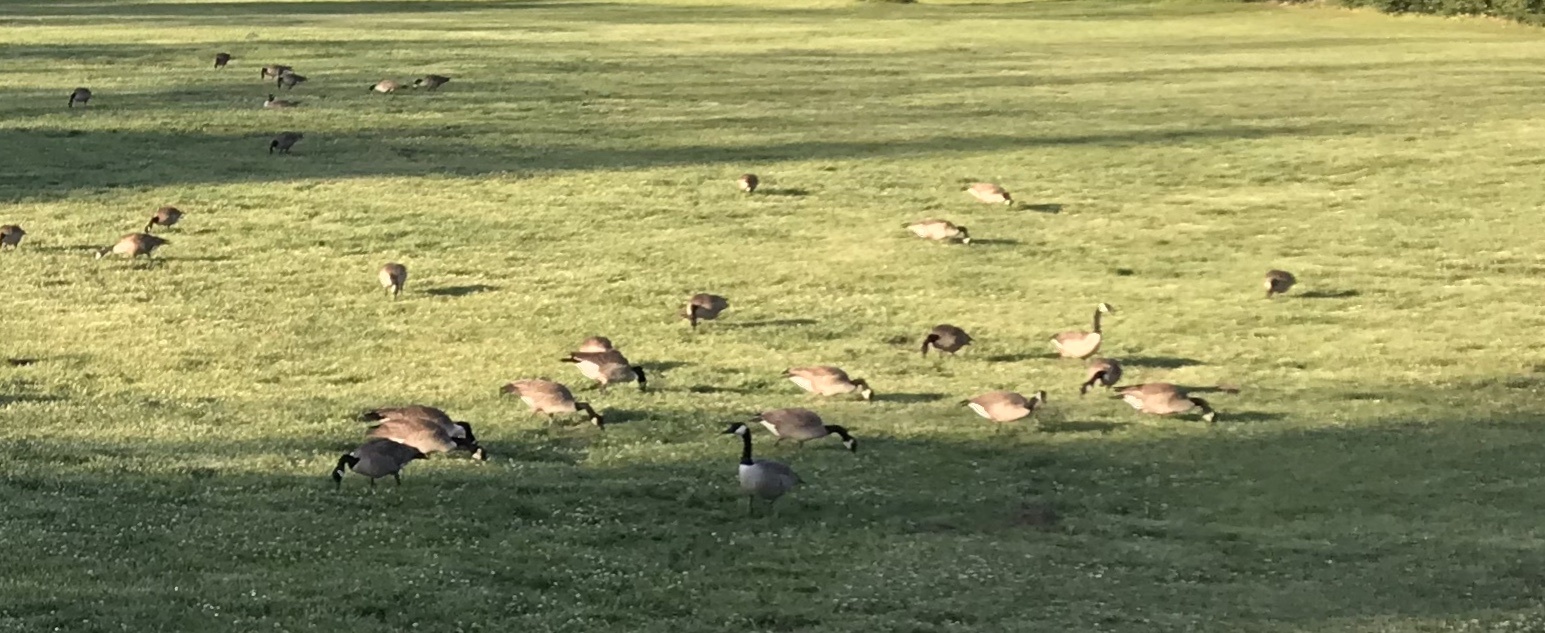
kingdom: Animalia
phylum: Chordata
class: Aves
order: Anseriformes
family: Anatidae
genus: Branta
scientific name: Branta canadensis
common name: Canada goose
